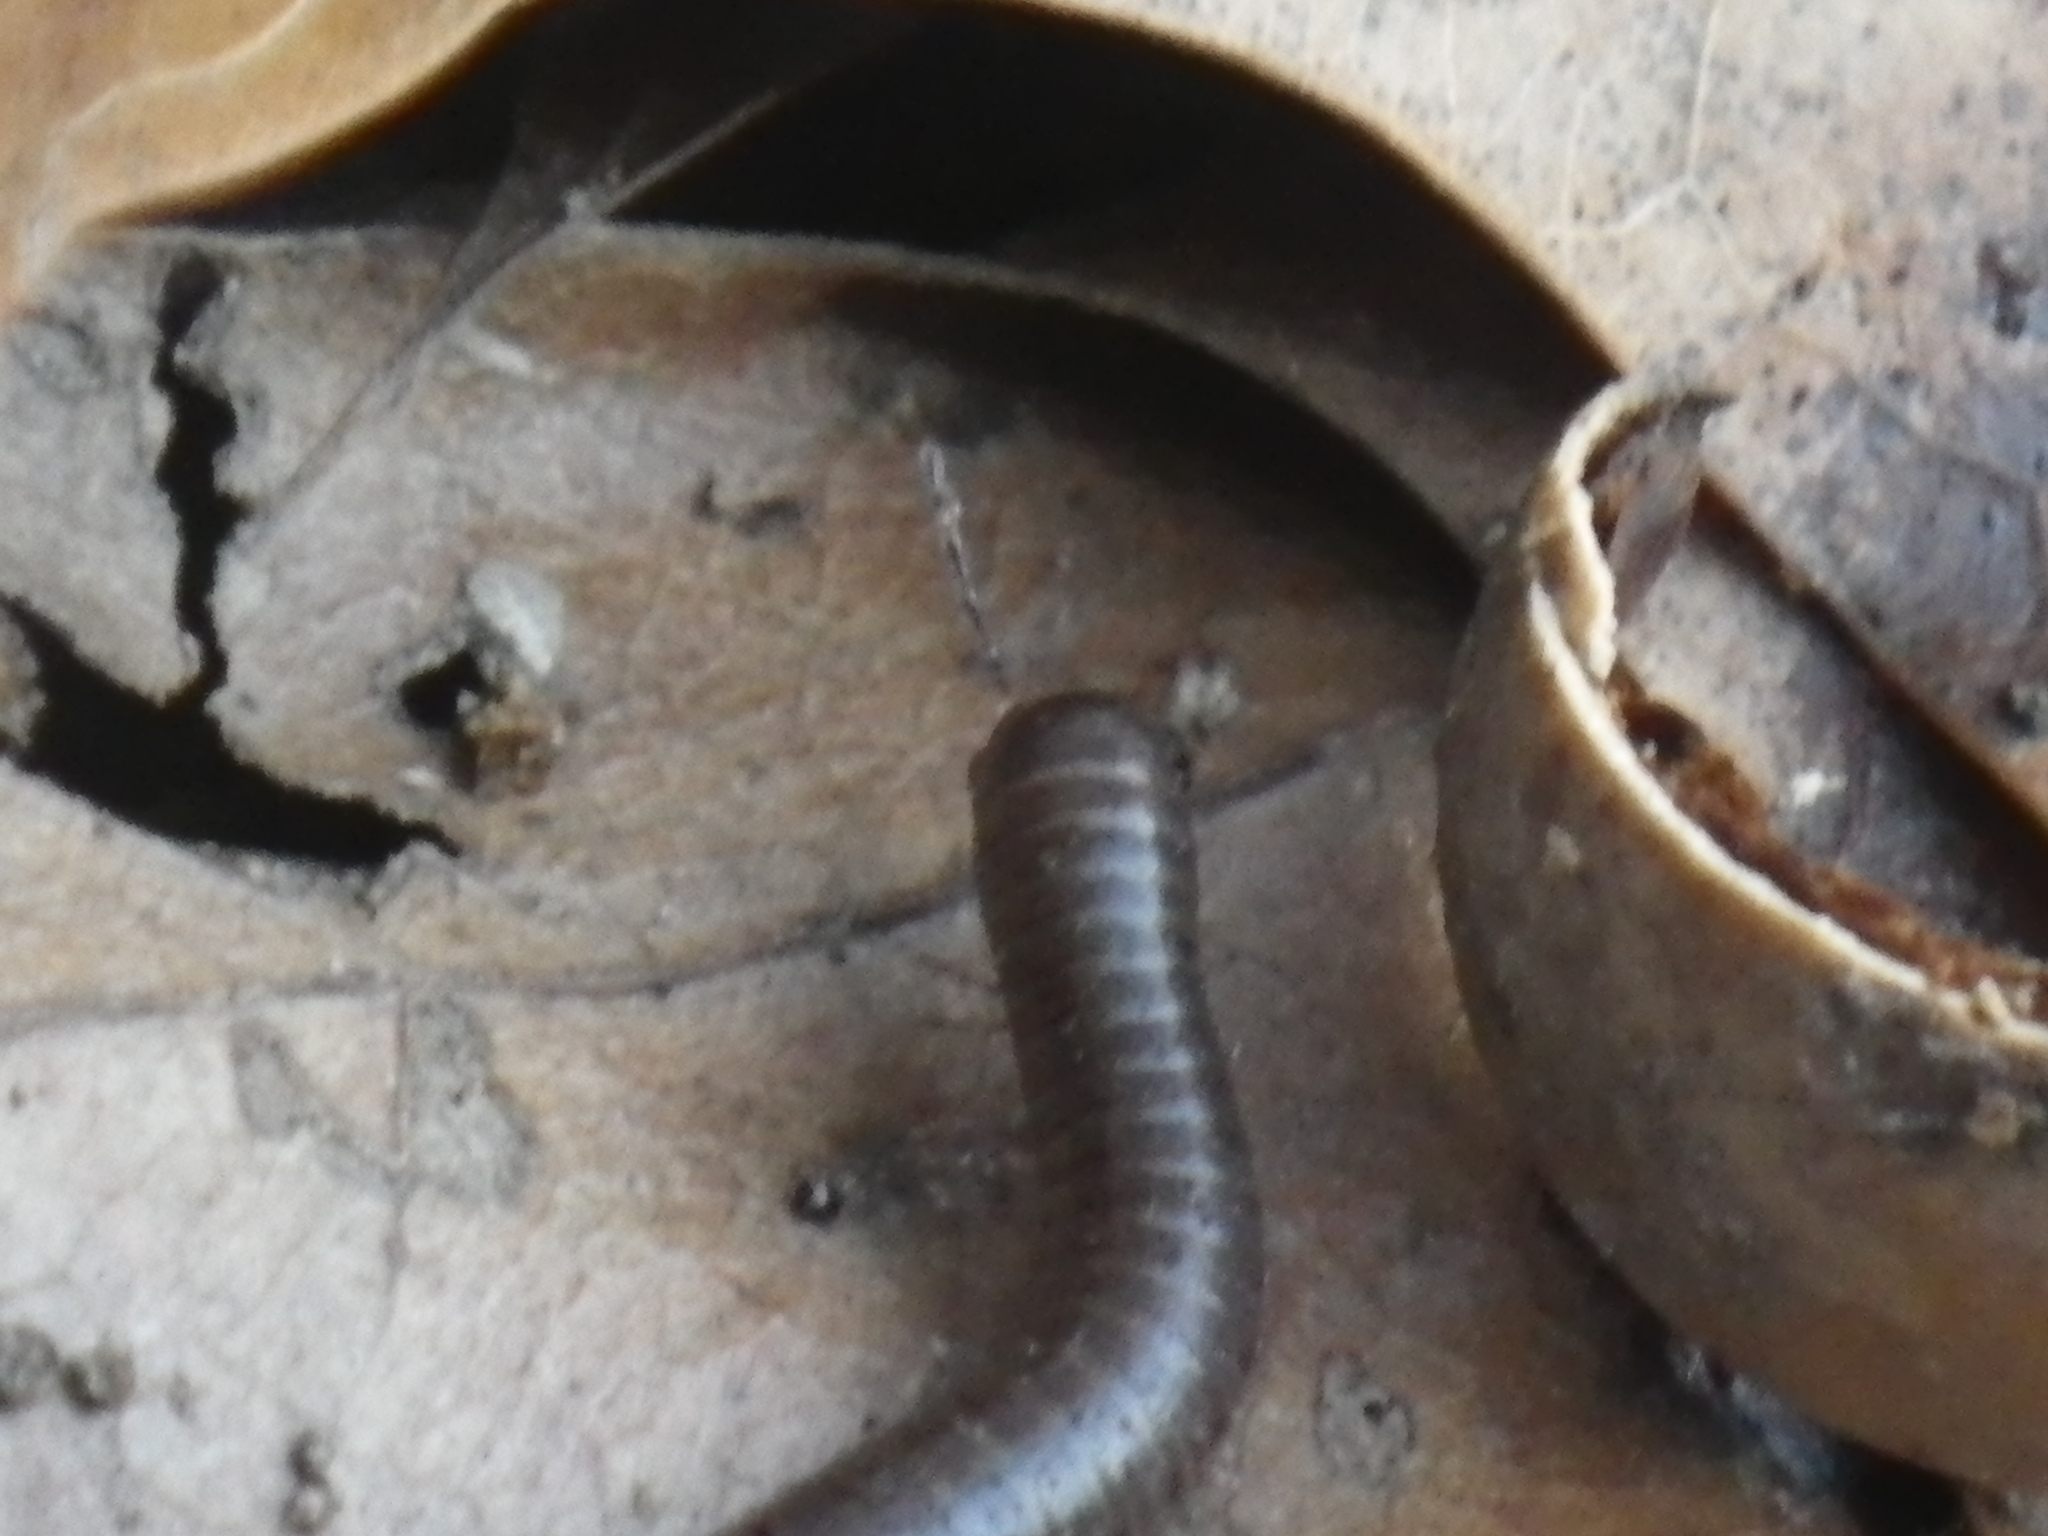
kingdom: Animalia
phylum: Arthropoda
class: Diplopoda
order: Julida
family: Julidae
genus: Ophyiulus
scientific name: Ophyiulus pilosus
